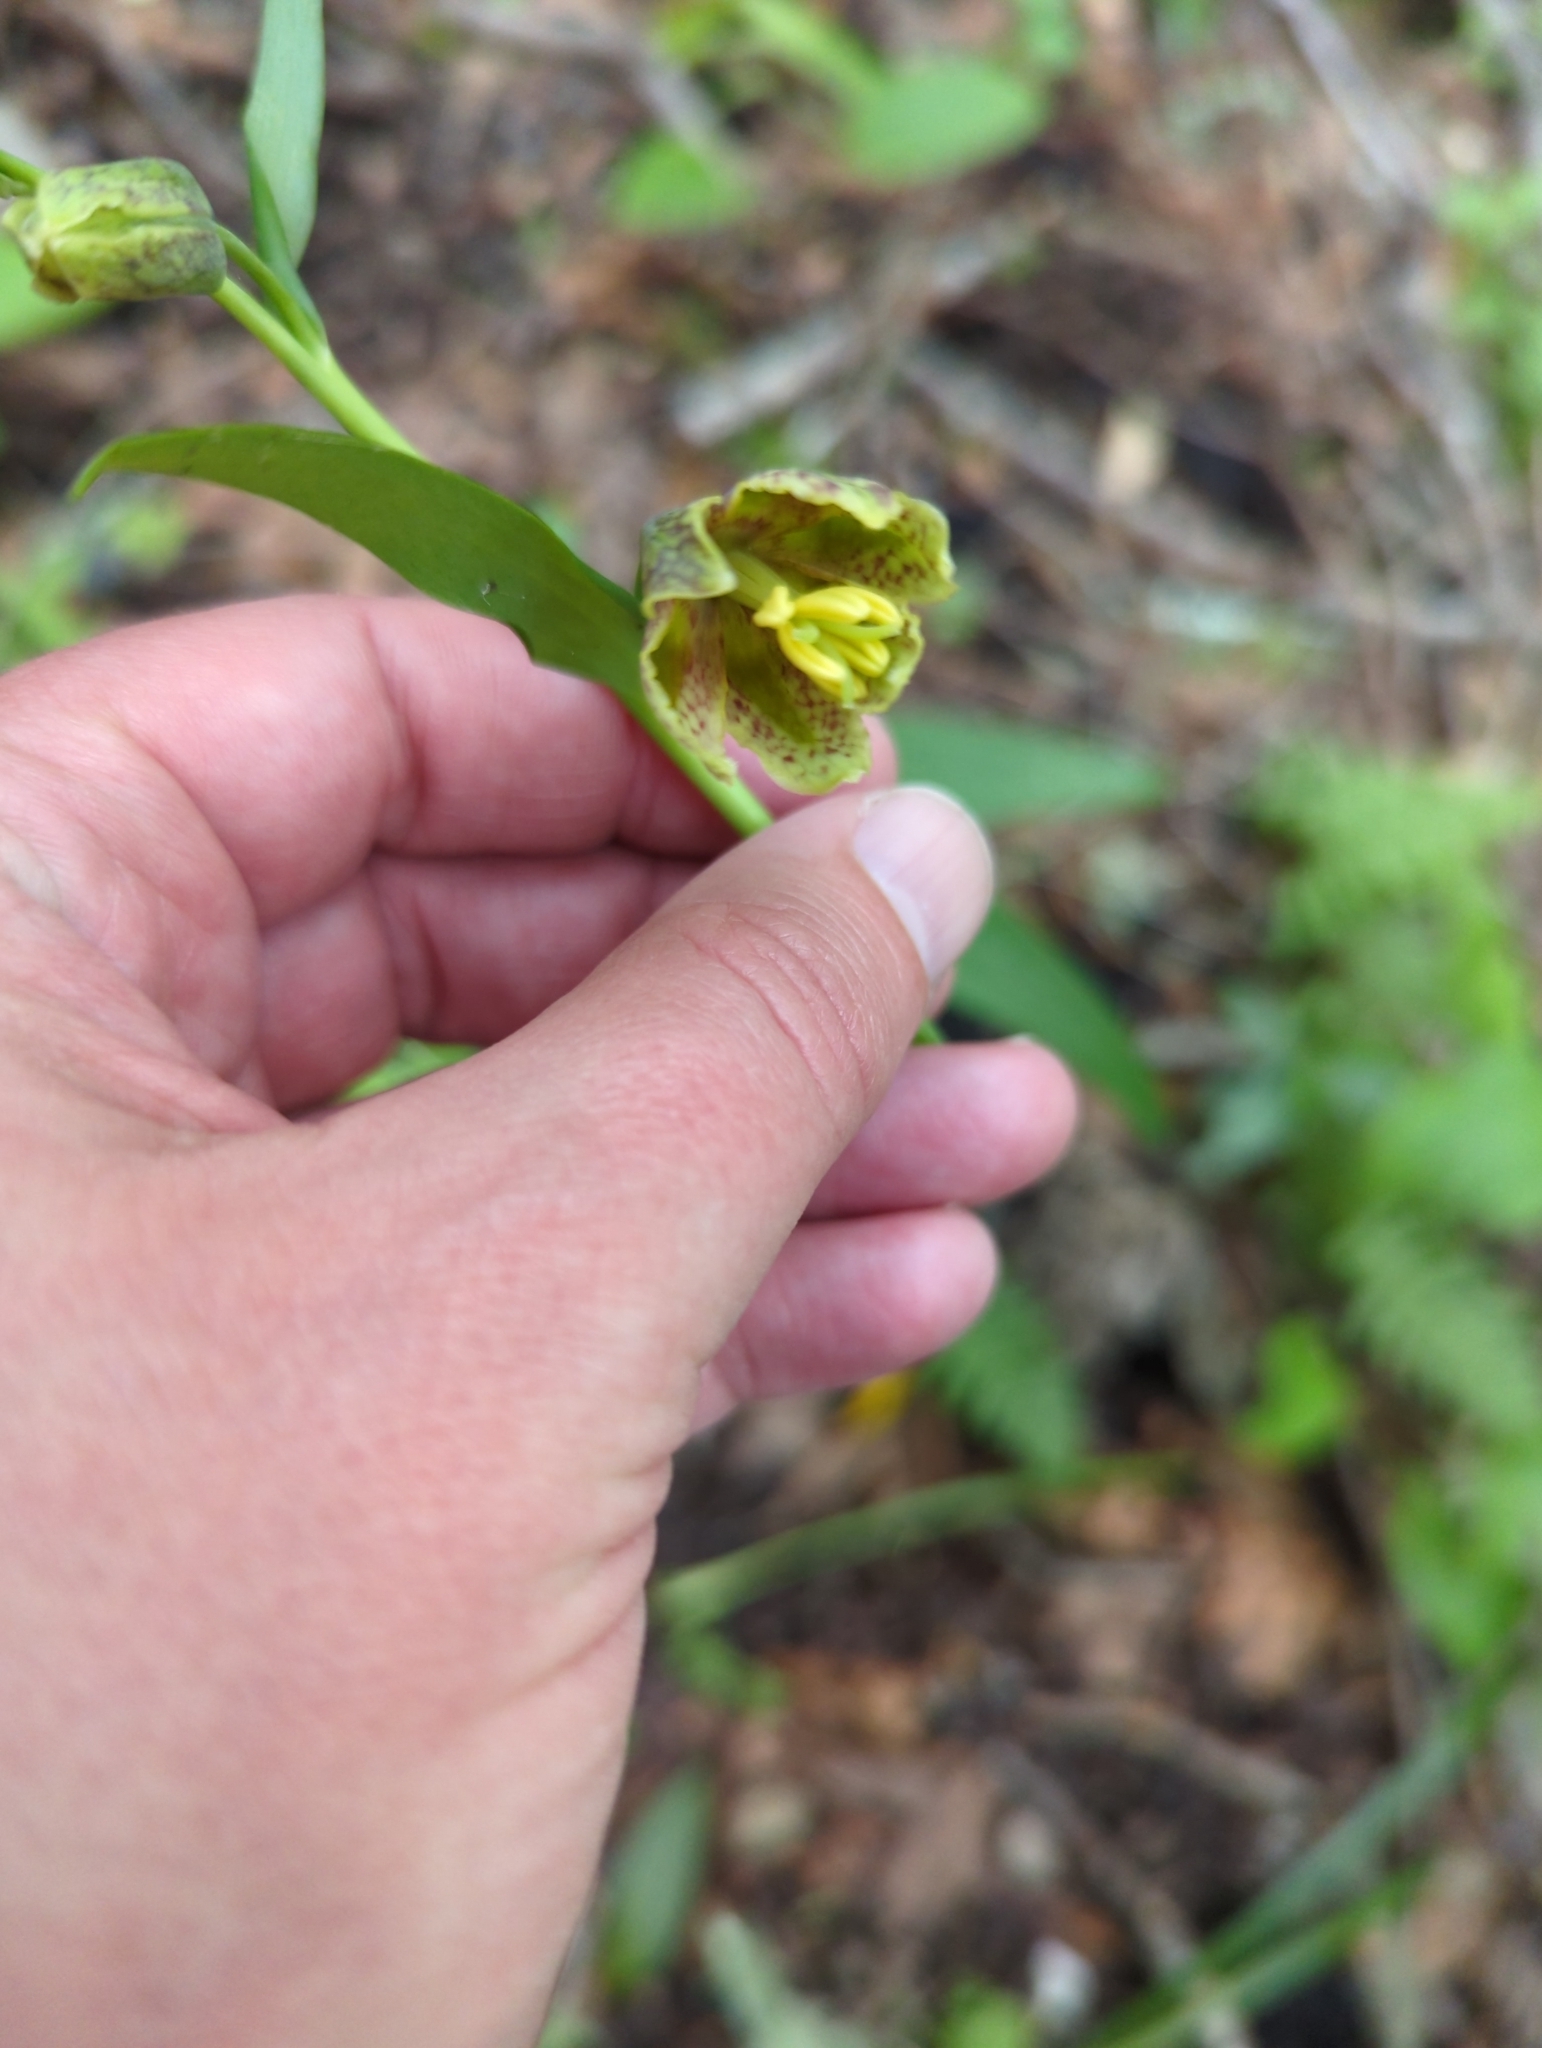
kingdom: Plantae
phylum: Tracheophyta
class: Liliopsida
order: Liliales
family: Liliaceae
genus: Fritillaria
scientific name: Fritillaria affinis
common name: Ojai fritillary
